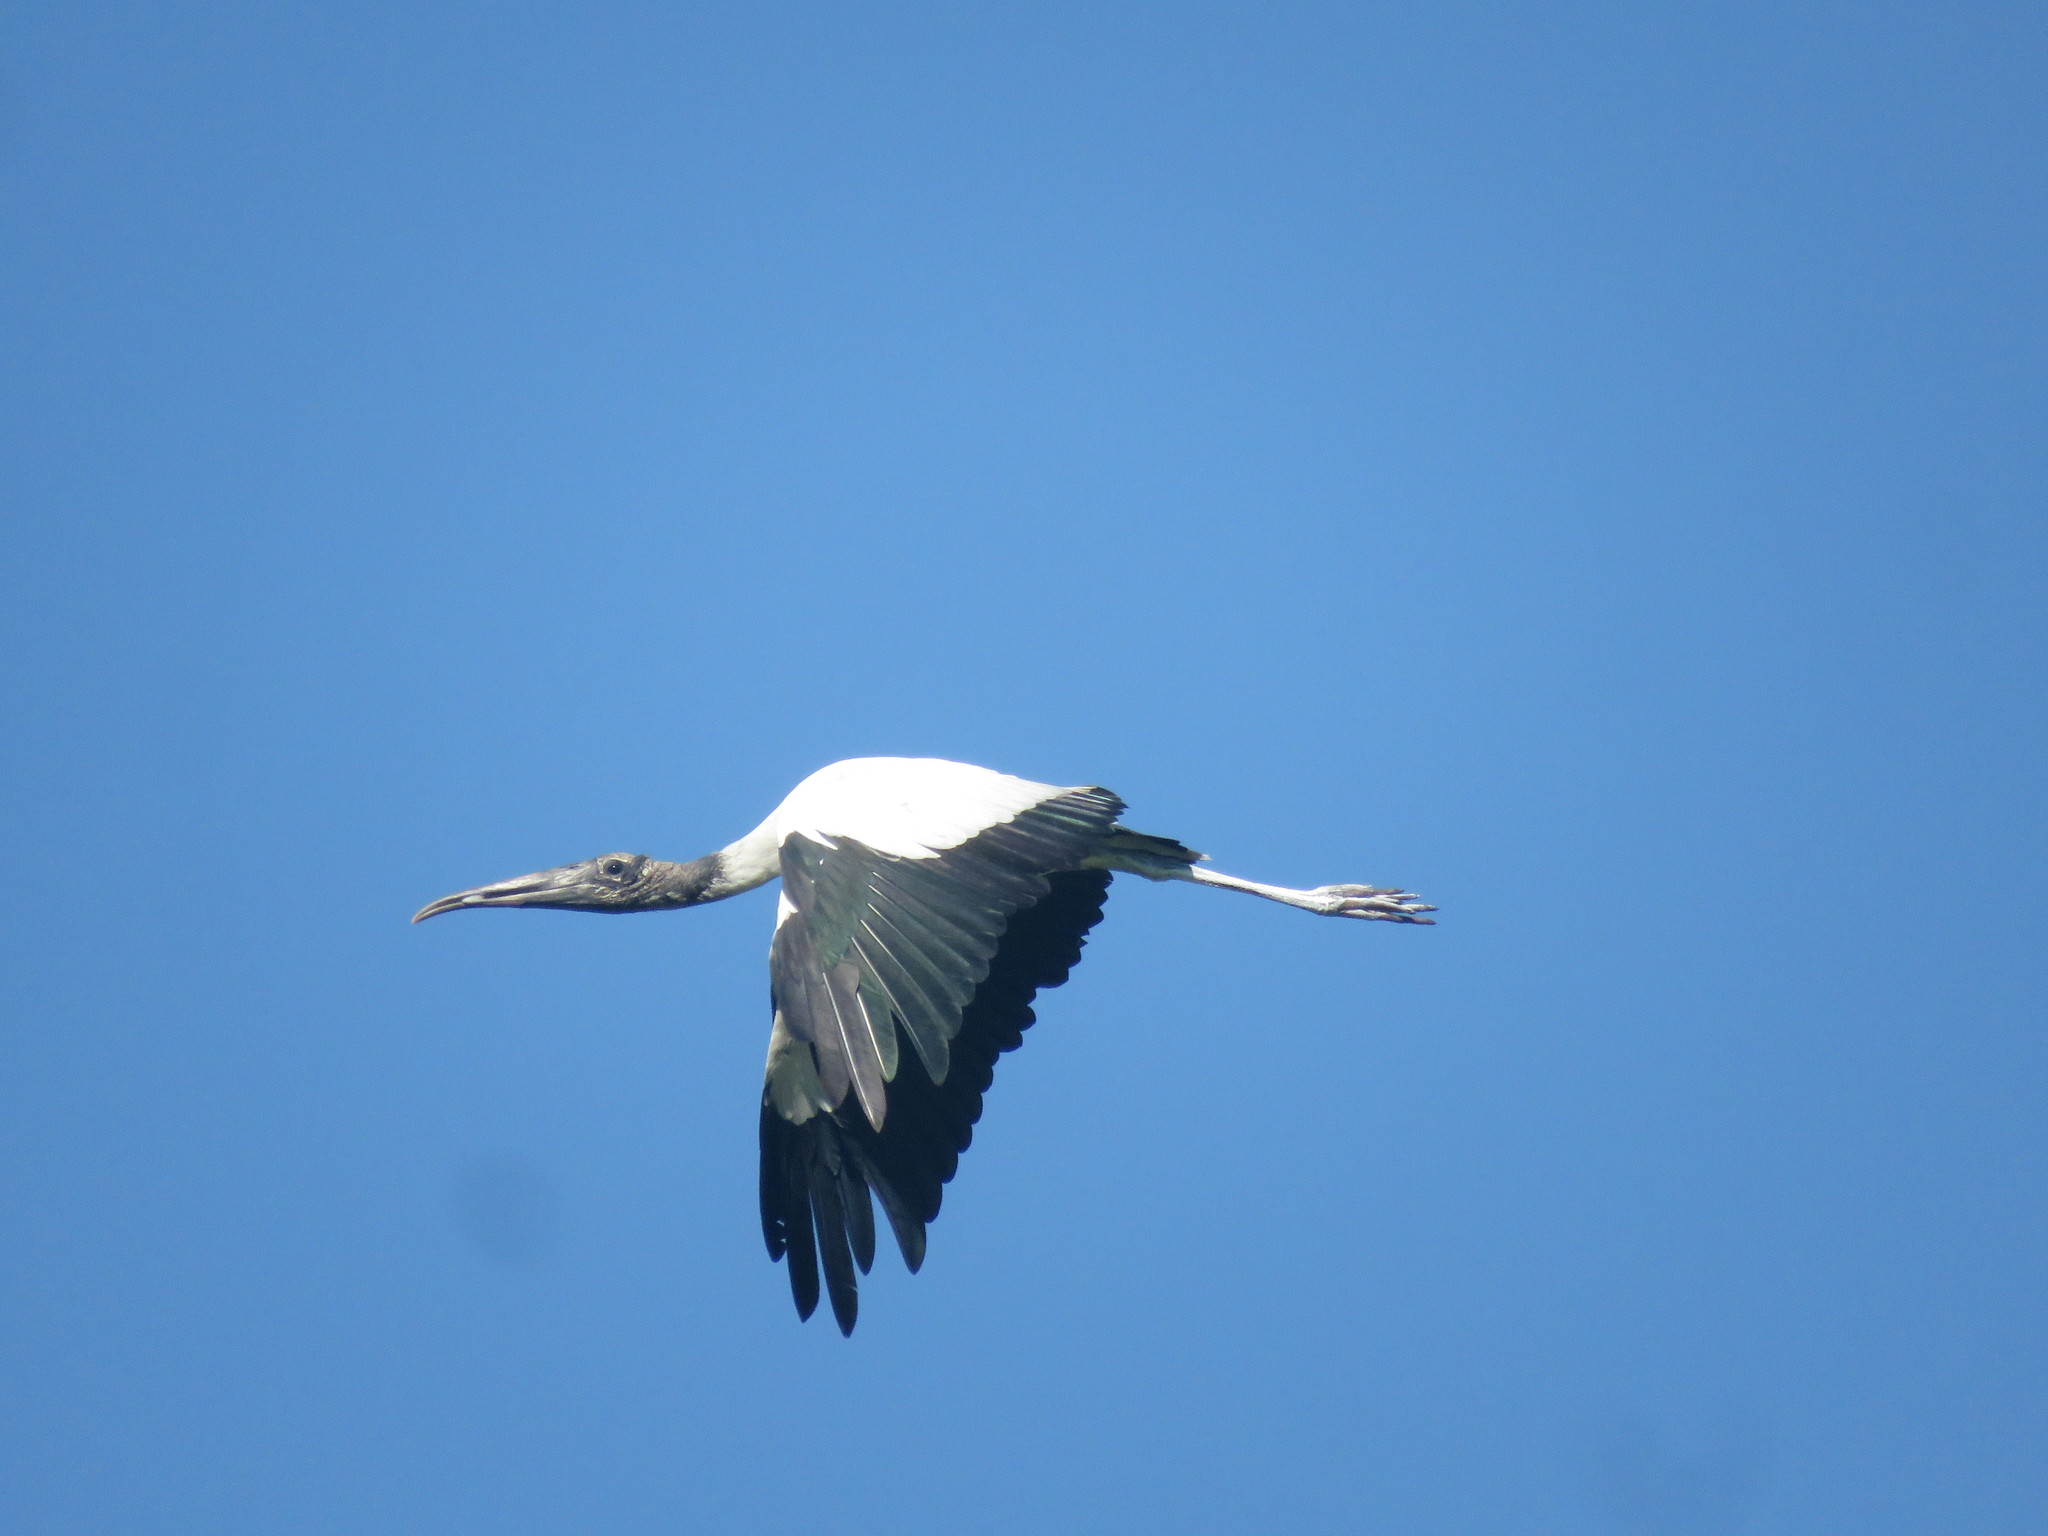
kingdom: Animalia
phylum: Chordata
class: Aves
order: Ciconiiformes
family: Ciconiidae
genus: Mycteria
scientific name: Mycteria americana
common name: Wood stork
